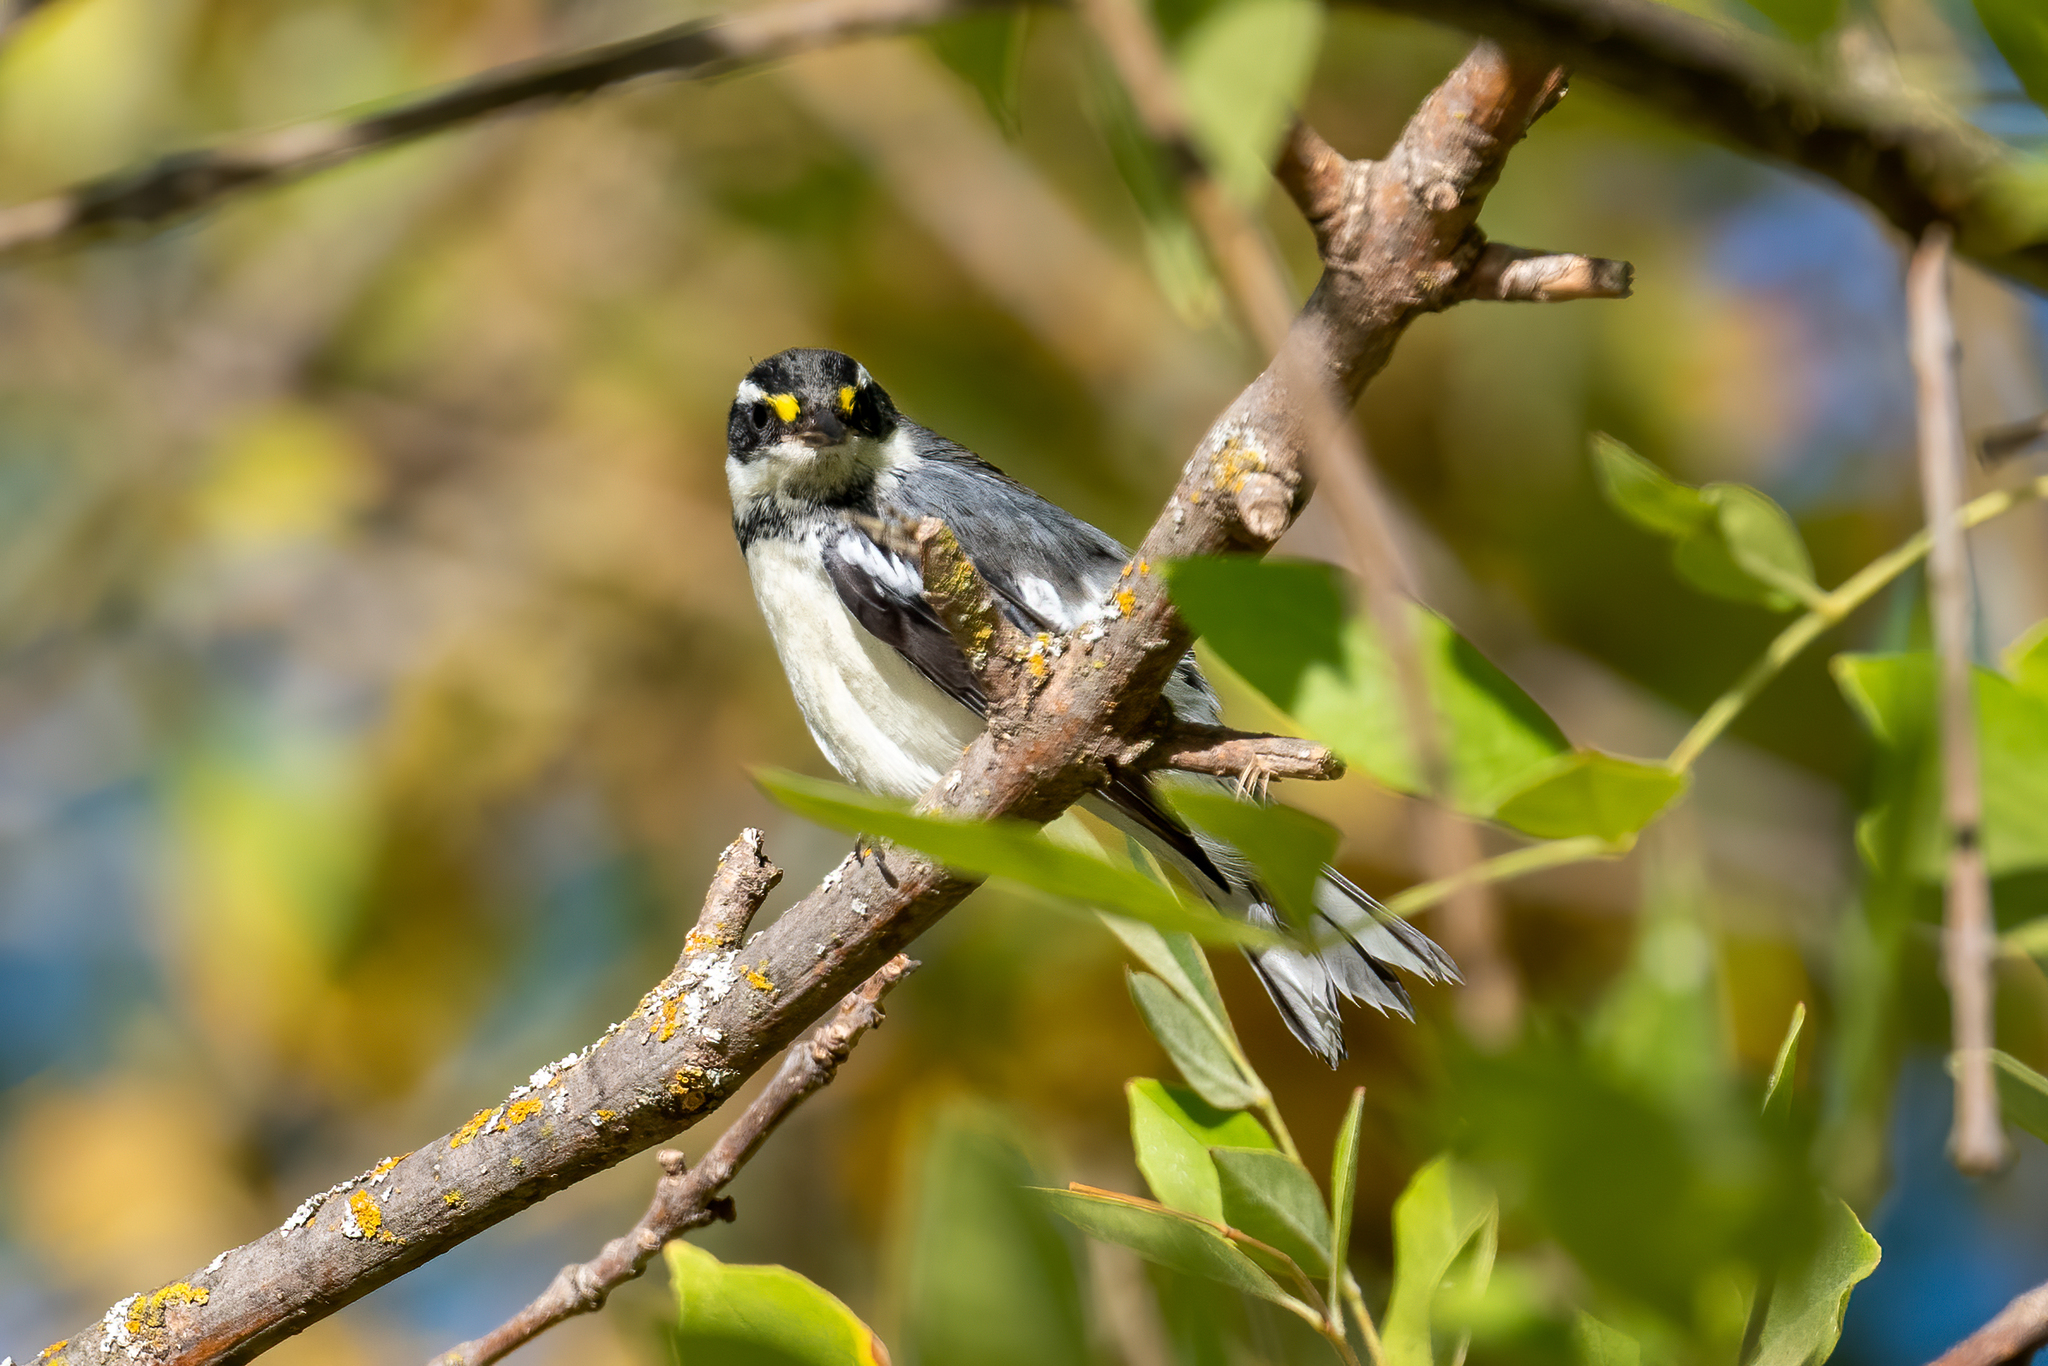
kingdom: Animalia
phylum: Chordata
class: Aves
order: Passeriformes
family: Parulidae
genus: Setophaga
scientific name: Setophaga nigrescens
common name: Black-throated gray warbler
